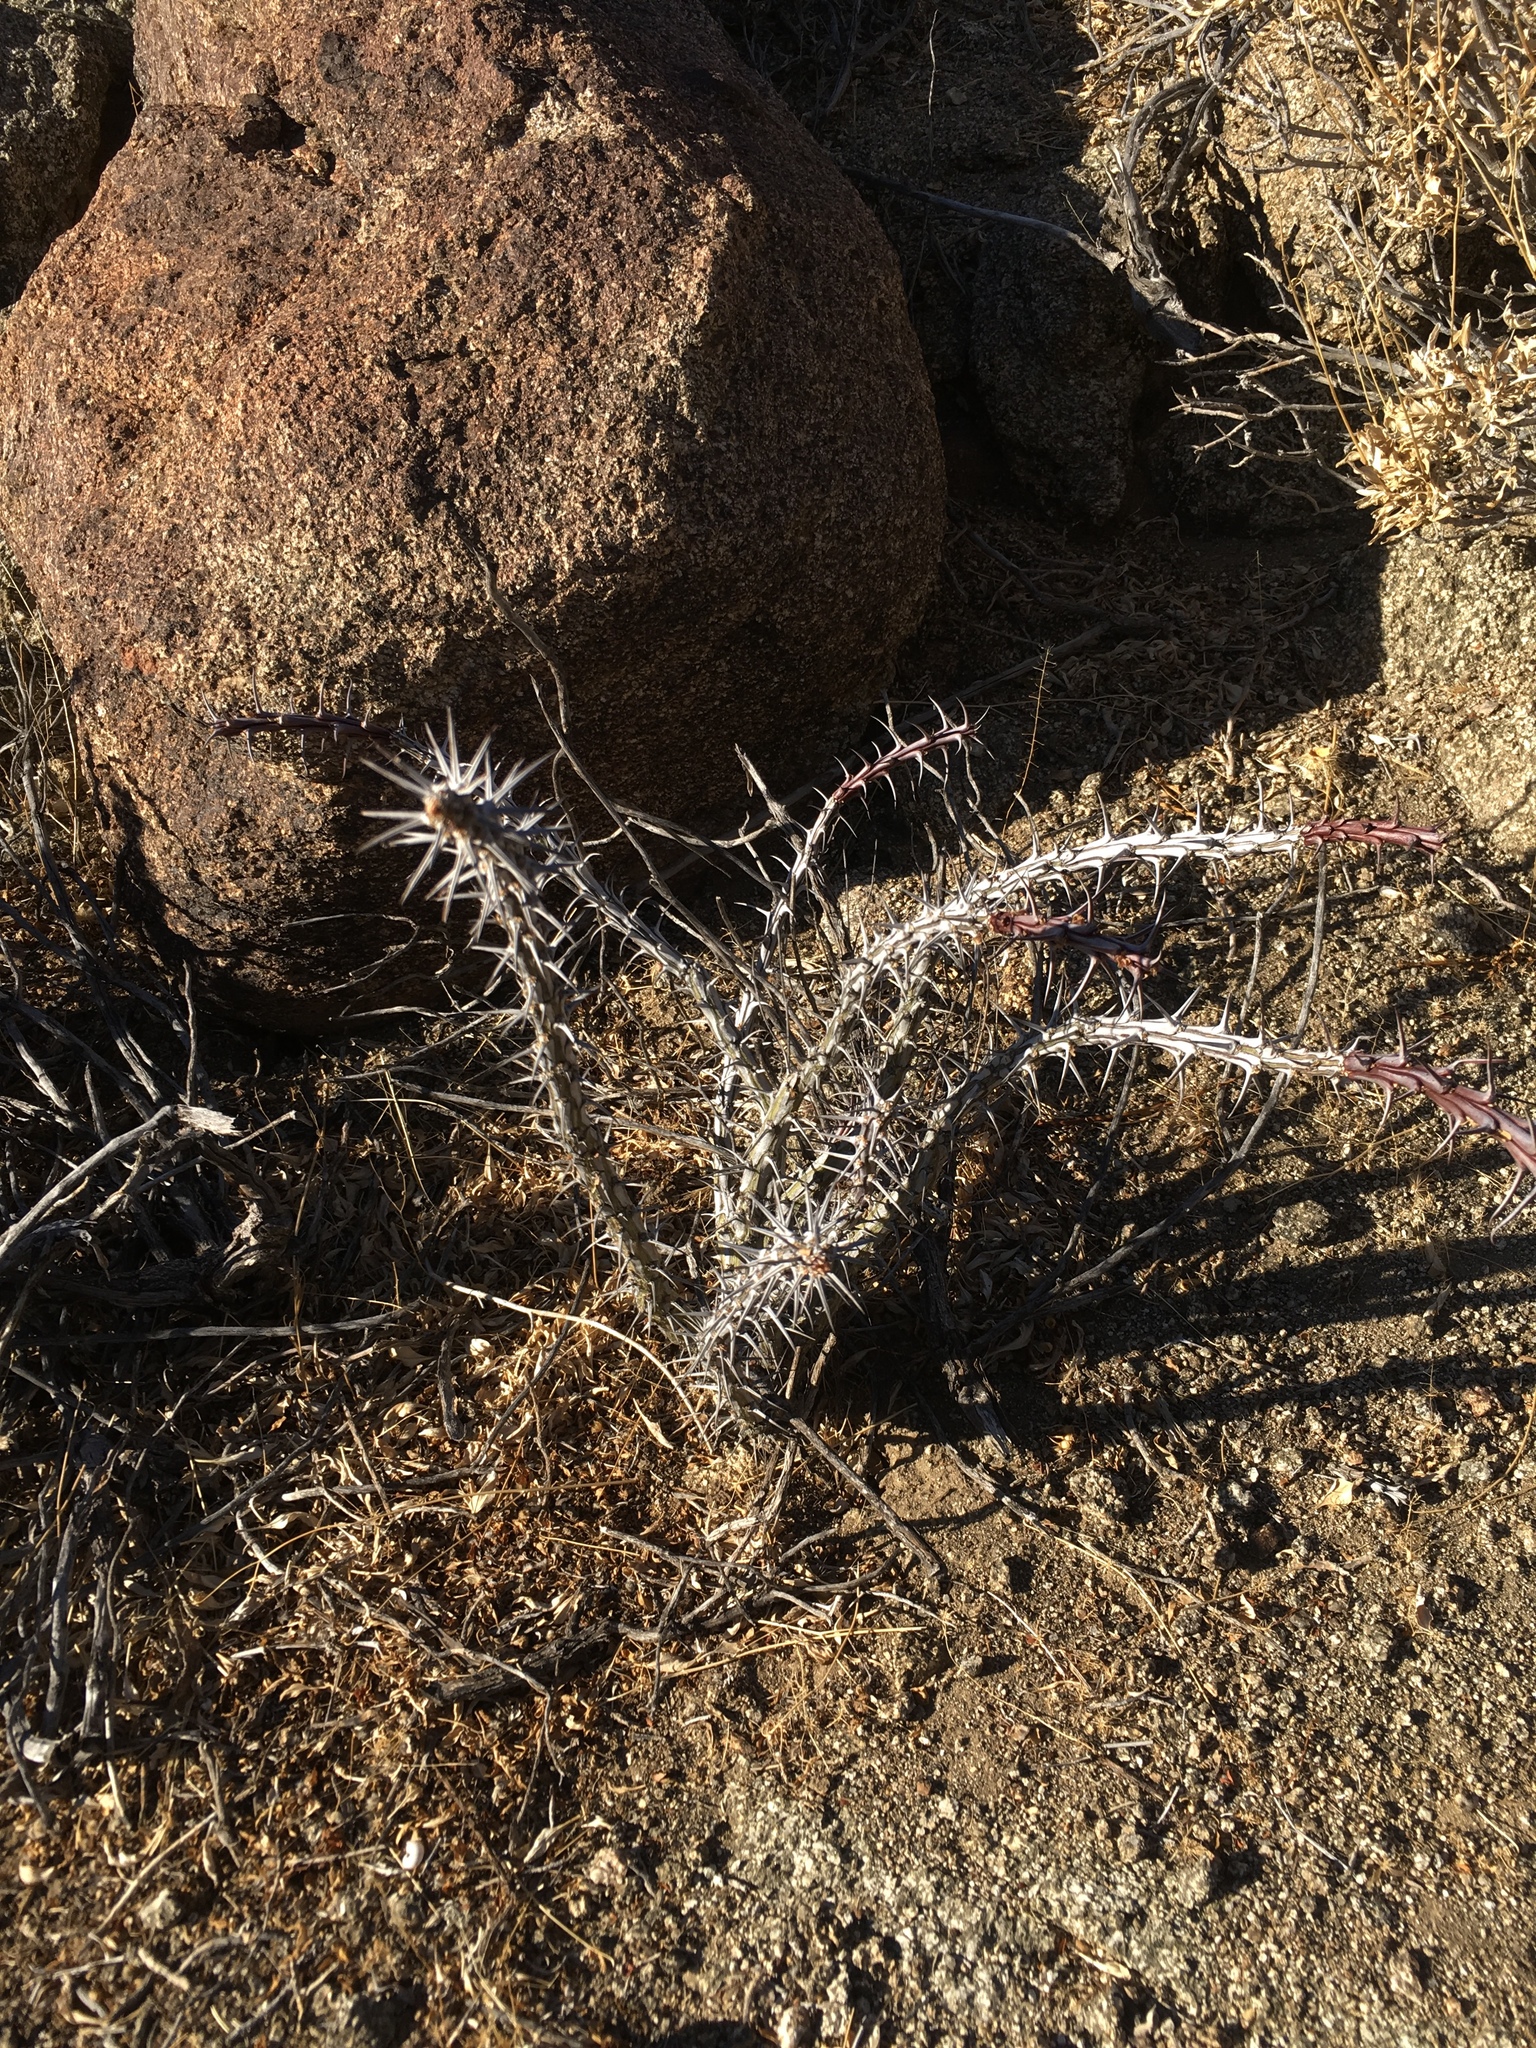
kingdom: Plantae
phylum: Tracheophyta
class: Magnoliopsida
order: Ericales
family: Fouquieriaceae
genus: Fouquieria
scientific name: Fouquieria splendens
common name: Vine-cactus
